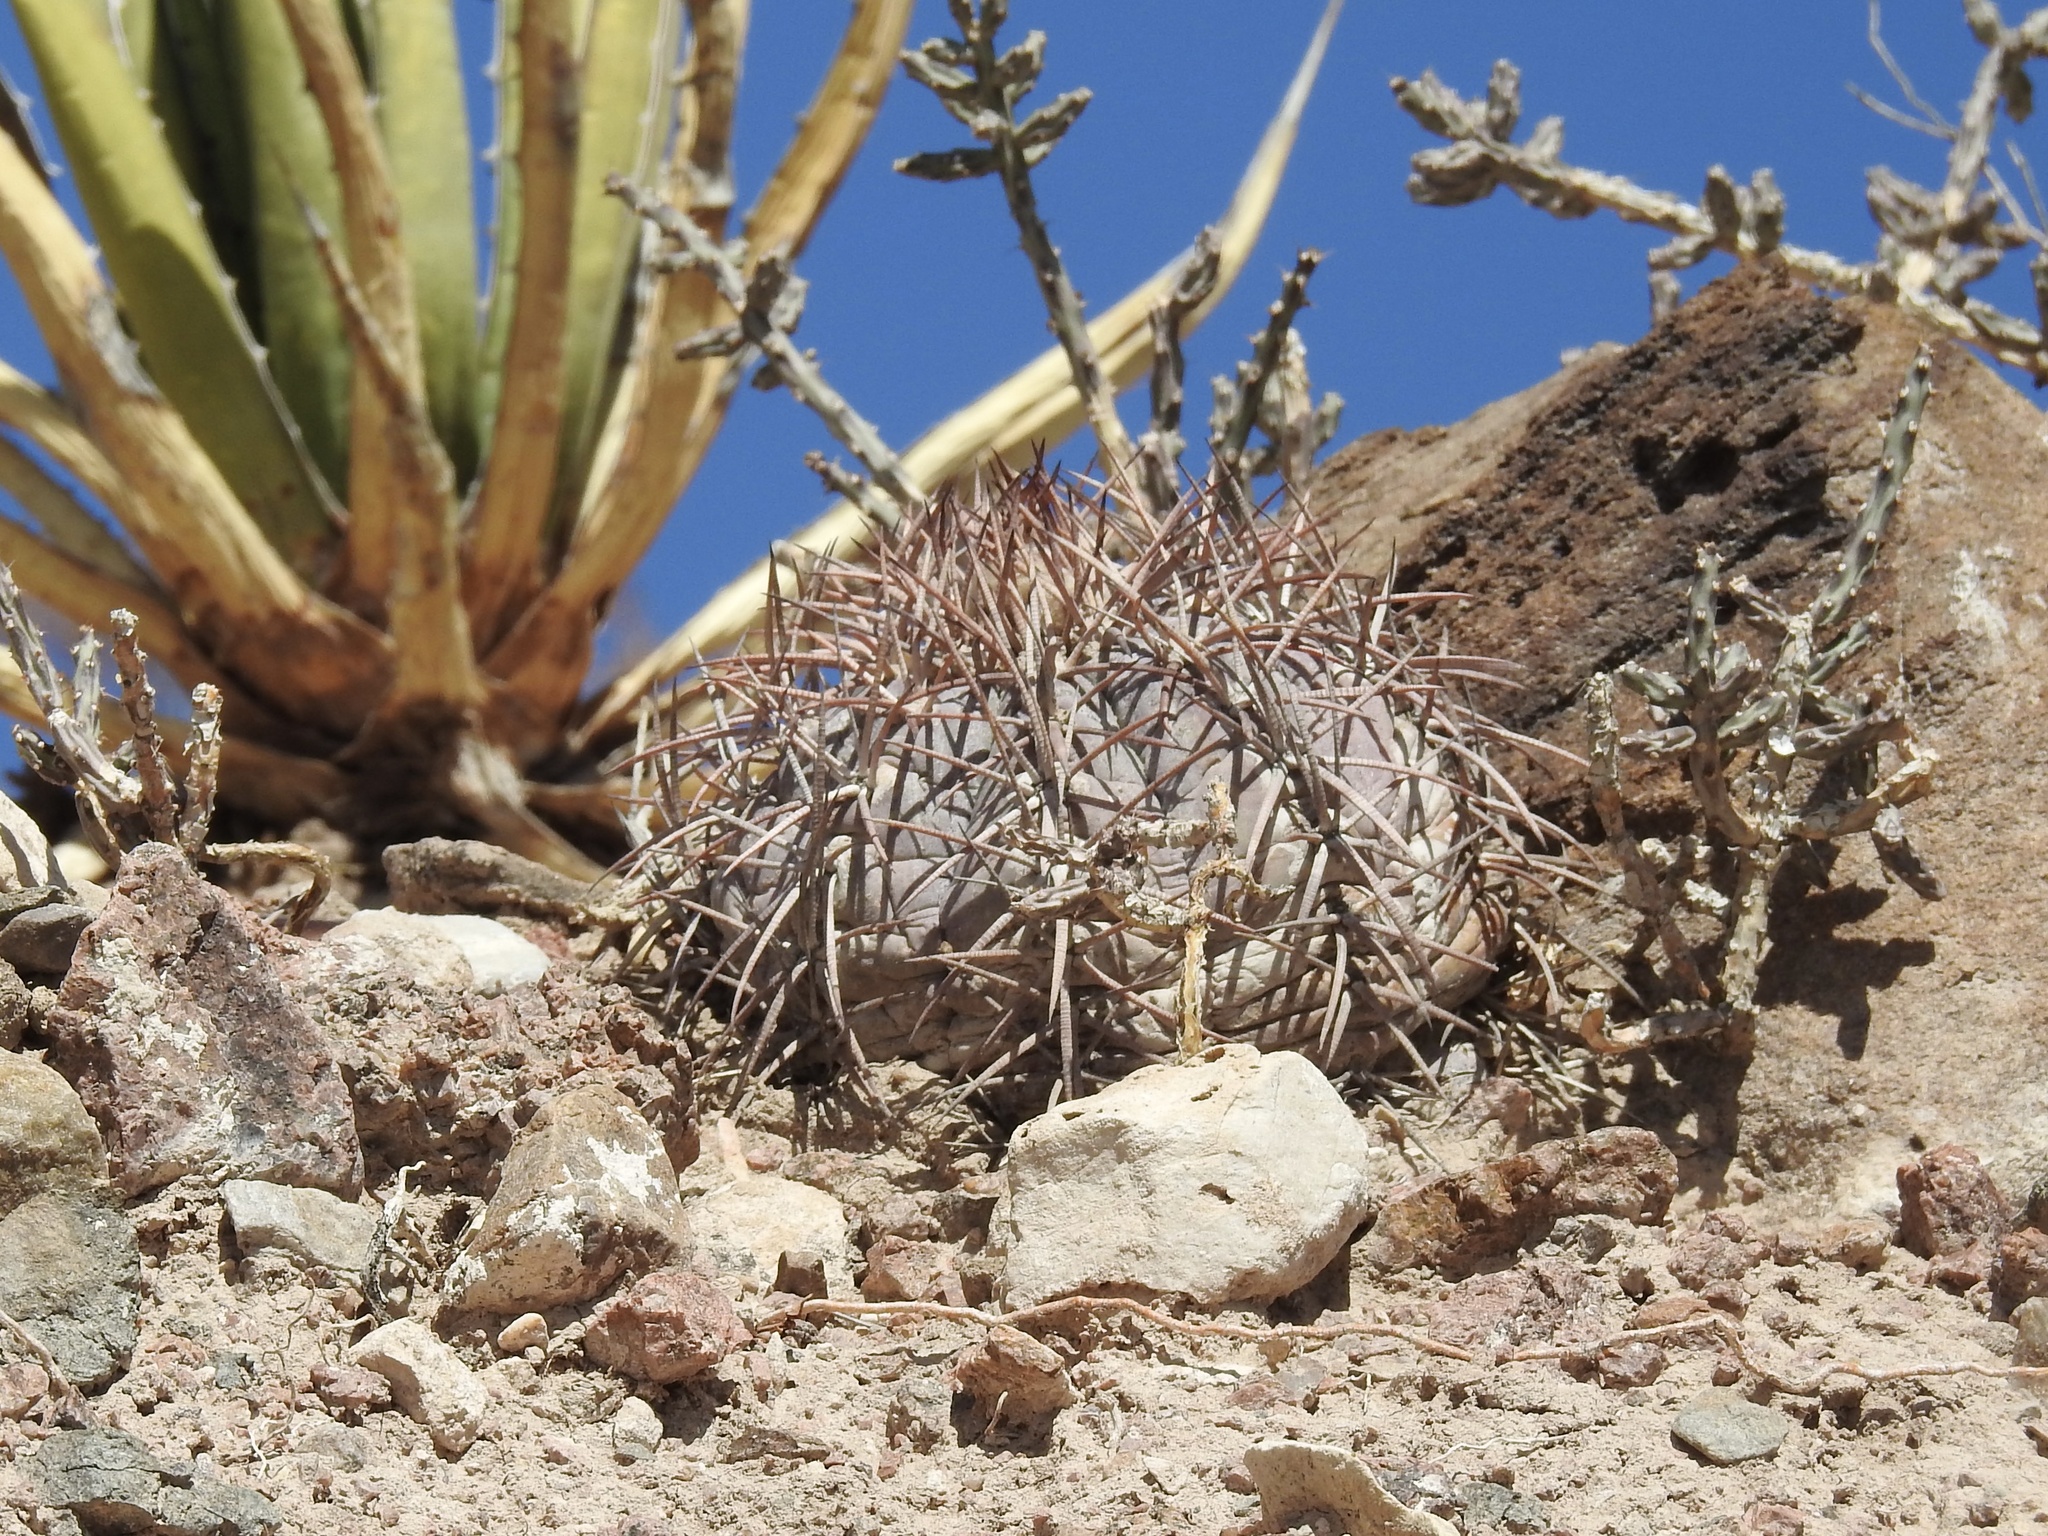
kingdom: Plantae
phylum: Tracheophyta
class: Magnoliopsida
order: Caryophyllales
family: Cactaceae
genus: Echinocactus
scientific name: Echinocactus horizonthalonius
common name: Devilshead
